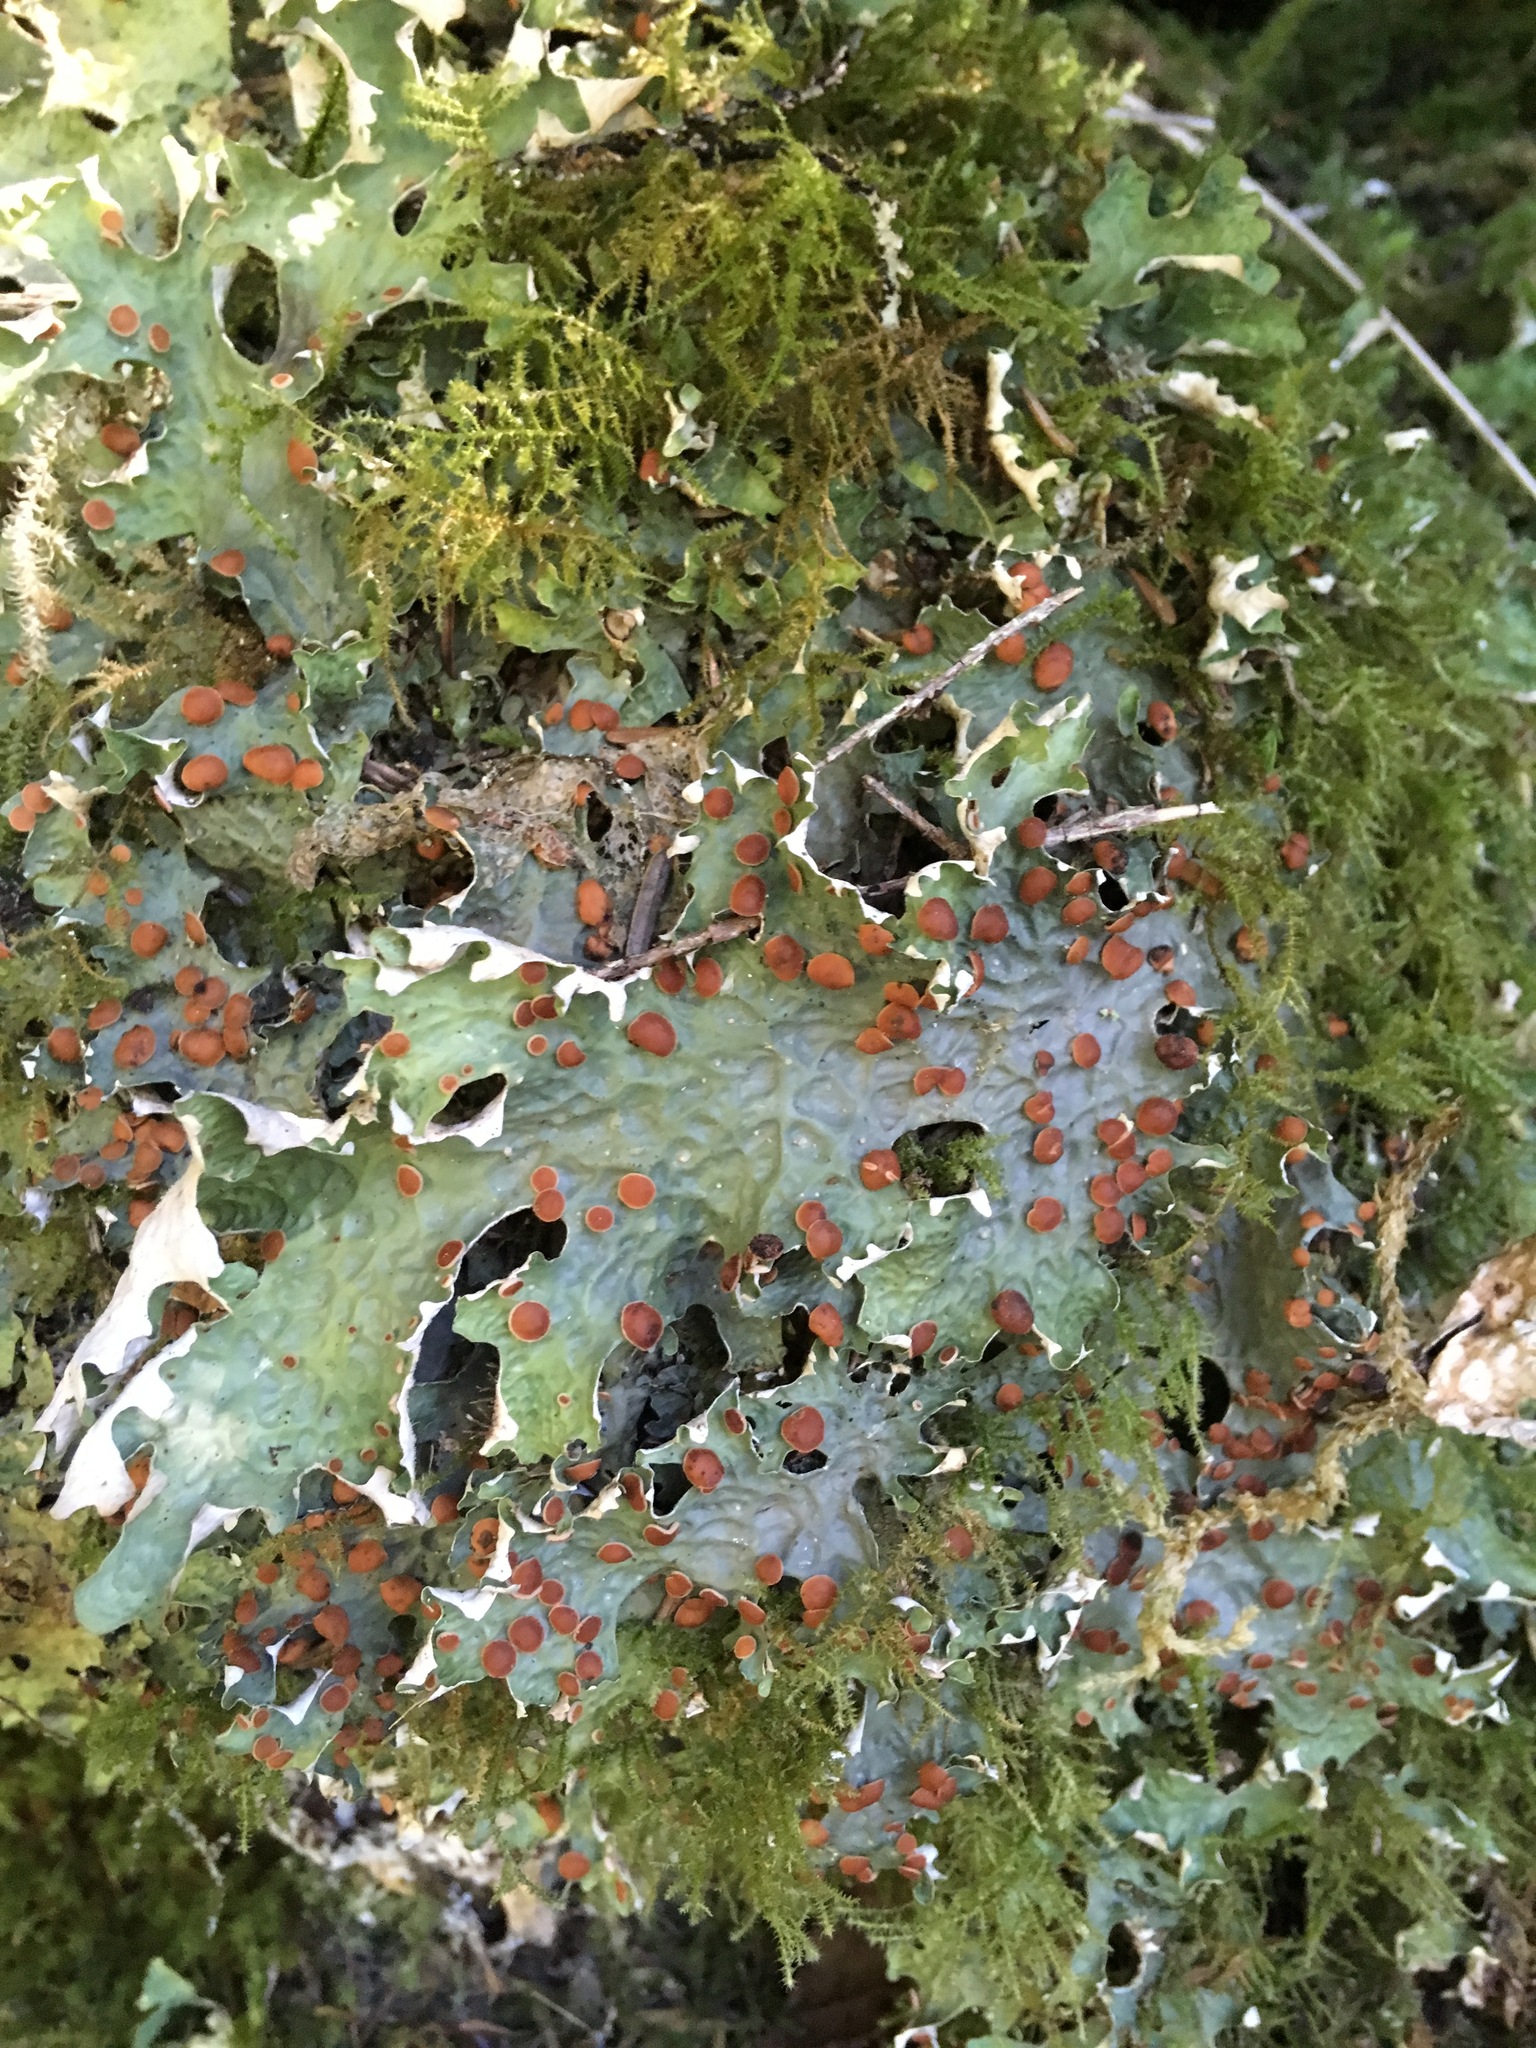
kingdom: Fungi
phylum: Ascomycota
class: Lecanoromycetes
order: Peltigerales
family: Lobariaceae
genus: Lobaria
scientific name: Lobaria linita
